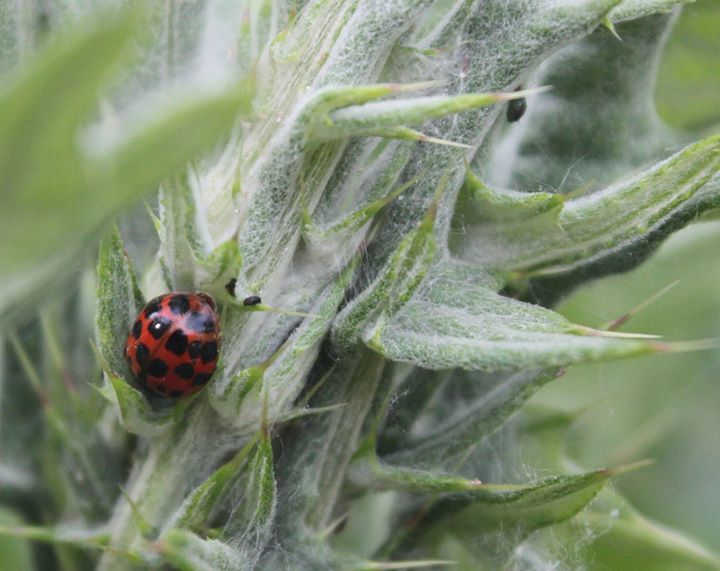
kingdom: Animalia
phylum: Arthropoda
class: Insecta
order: Coleoptera
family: Coccinellidae
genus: Harmonia
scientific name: Harmonia axyridis
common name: Harlequin ladybird
